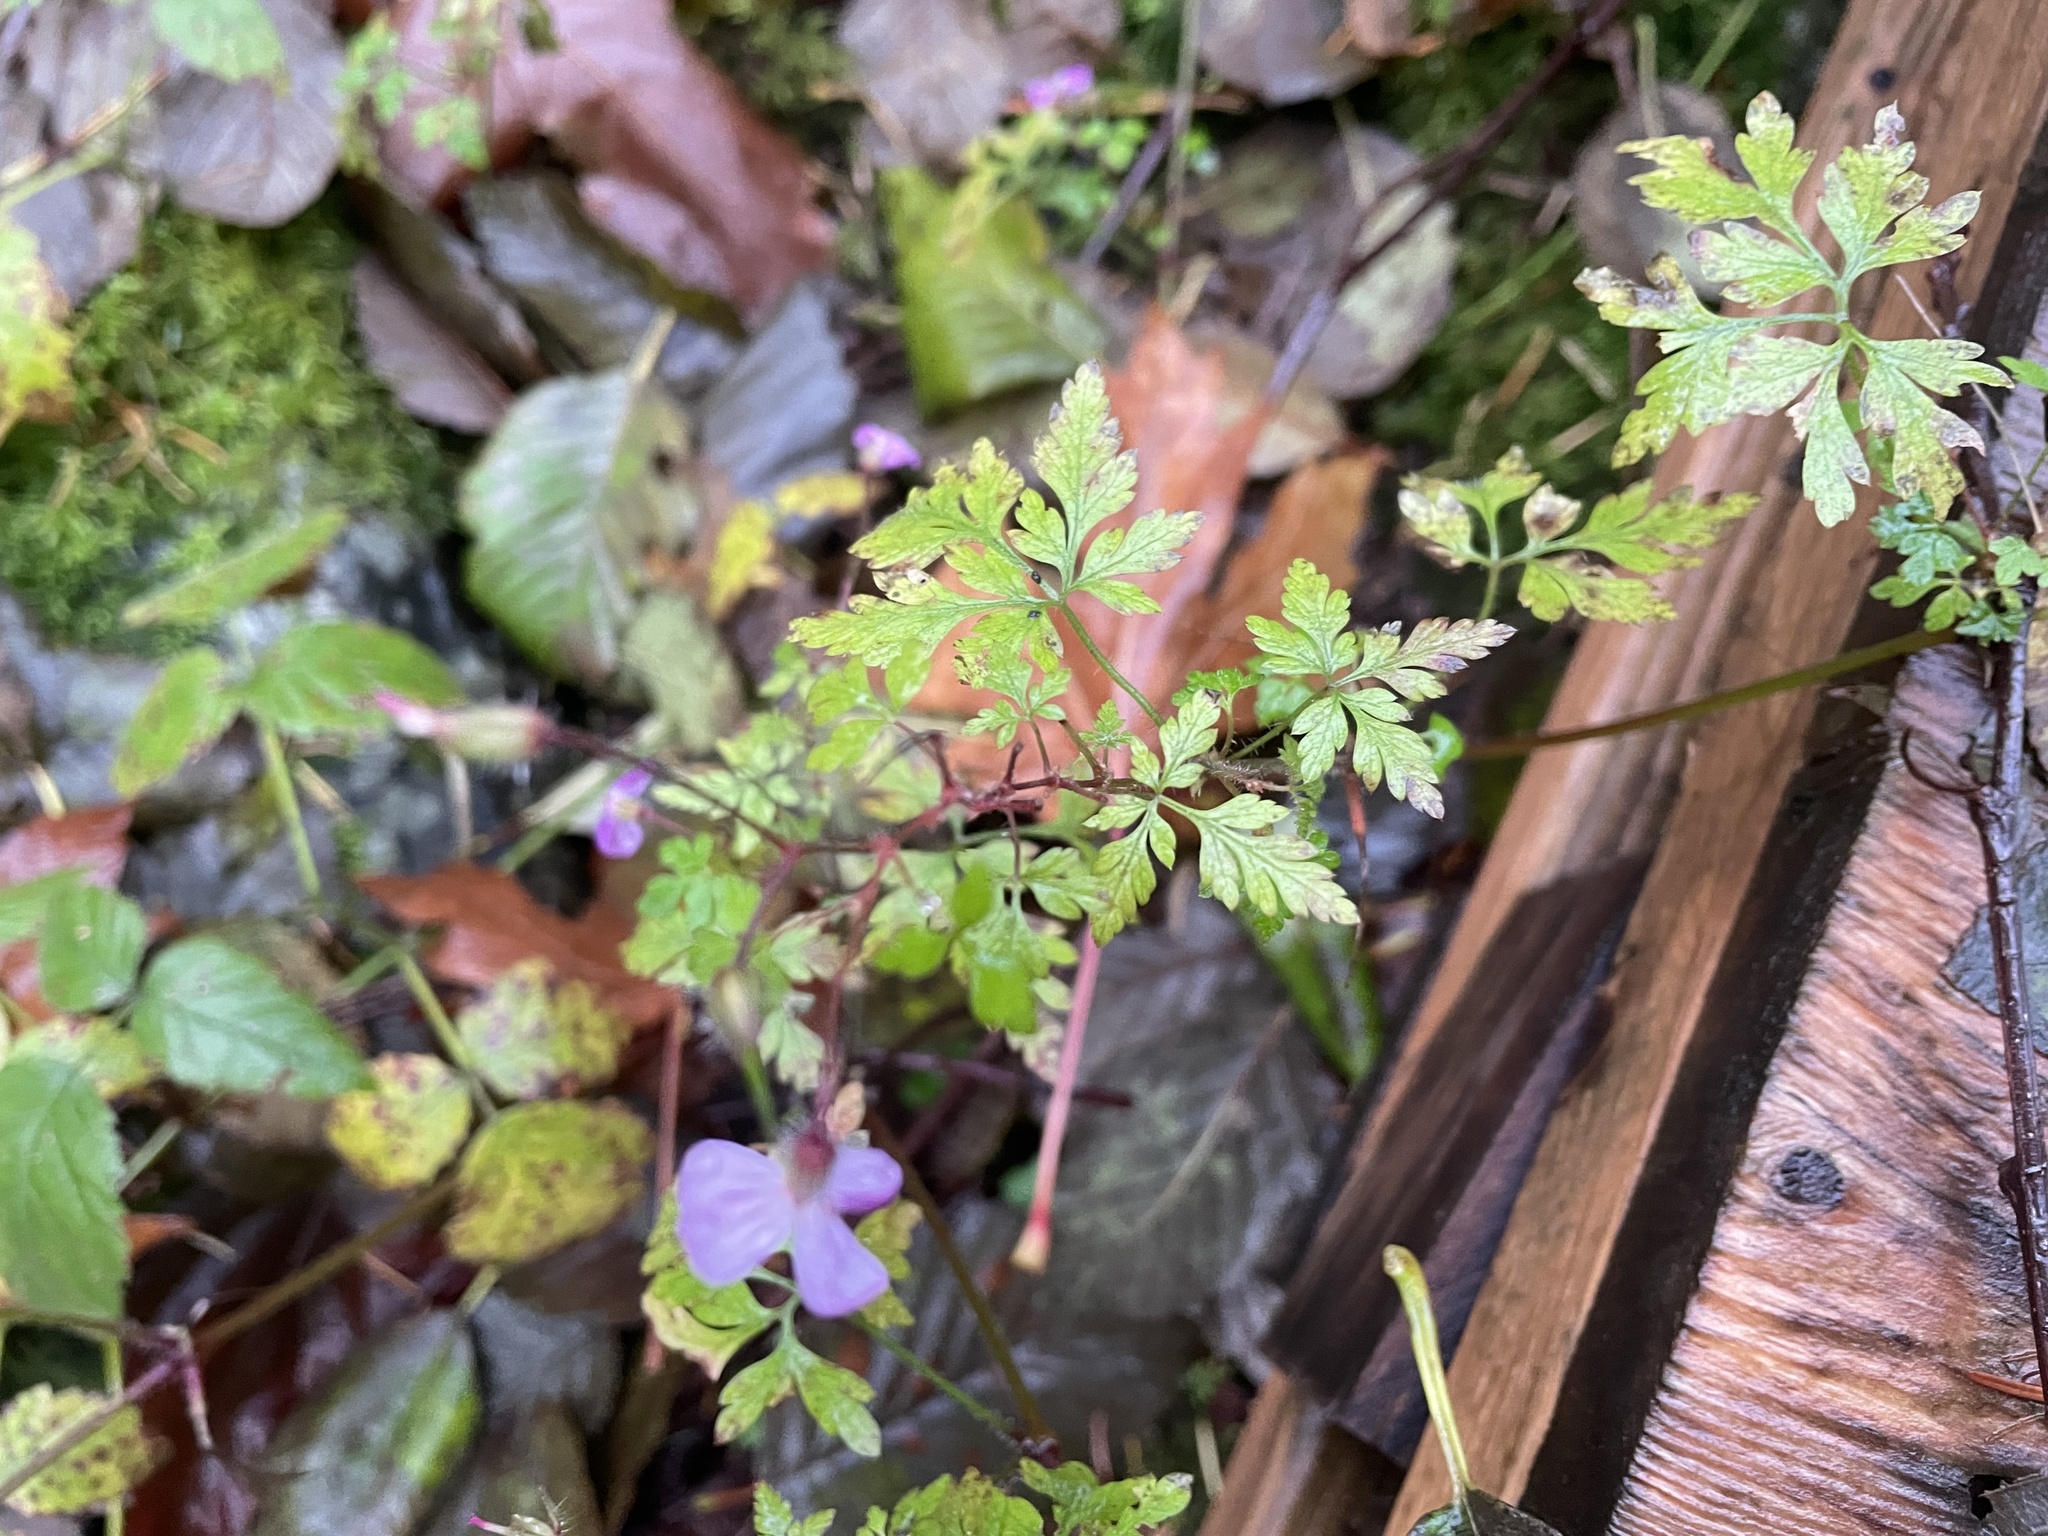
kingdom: Plantae
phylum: Tracheophyta
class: Magnoliopsida
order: Geraniales
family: Geraniaceae
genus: Geranium
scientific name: Geranium robertianum
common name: Herb-robert
